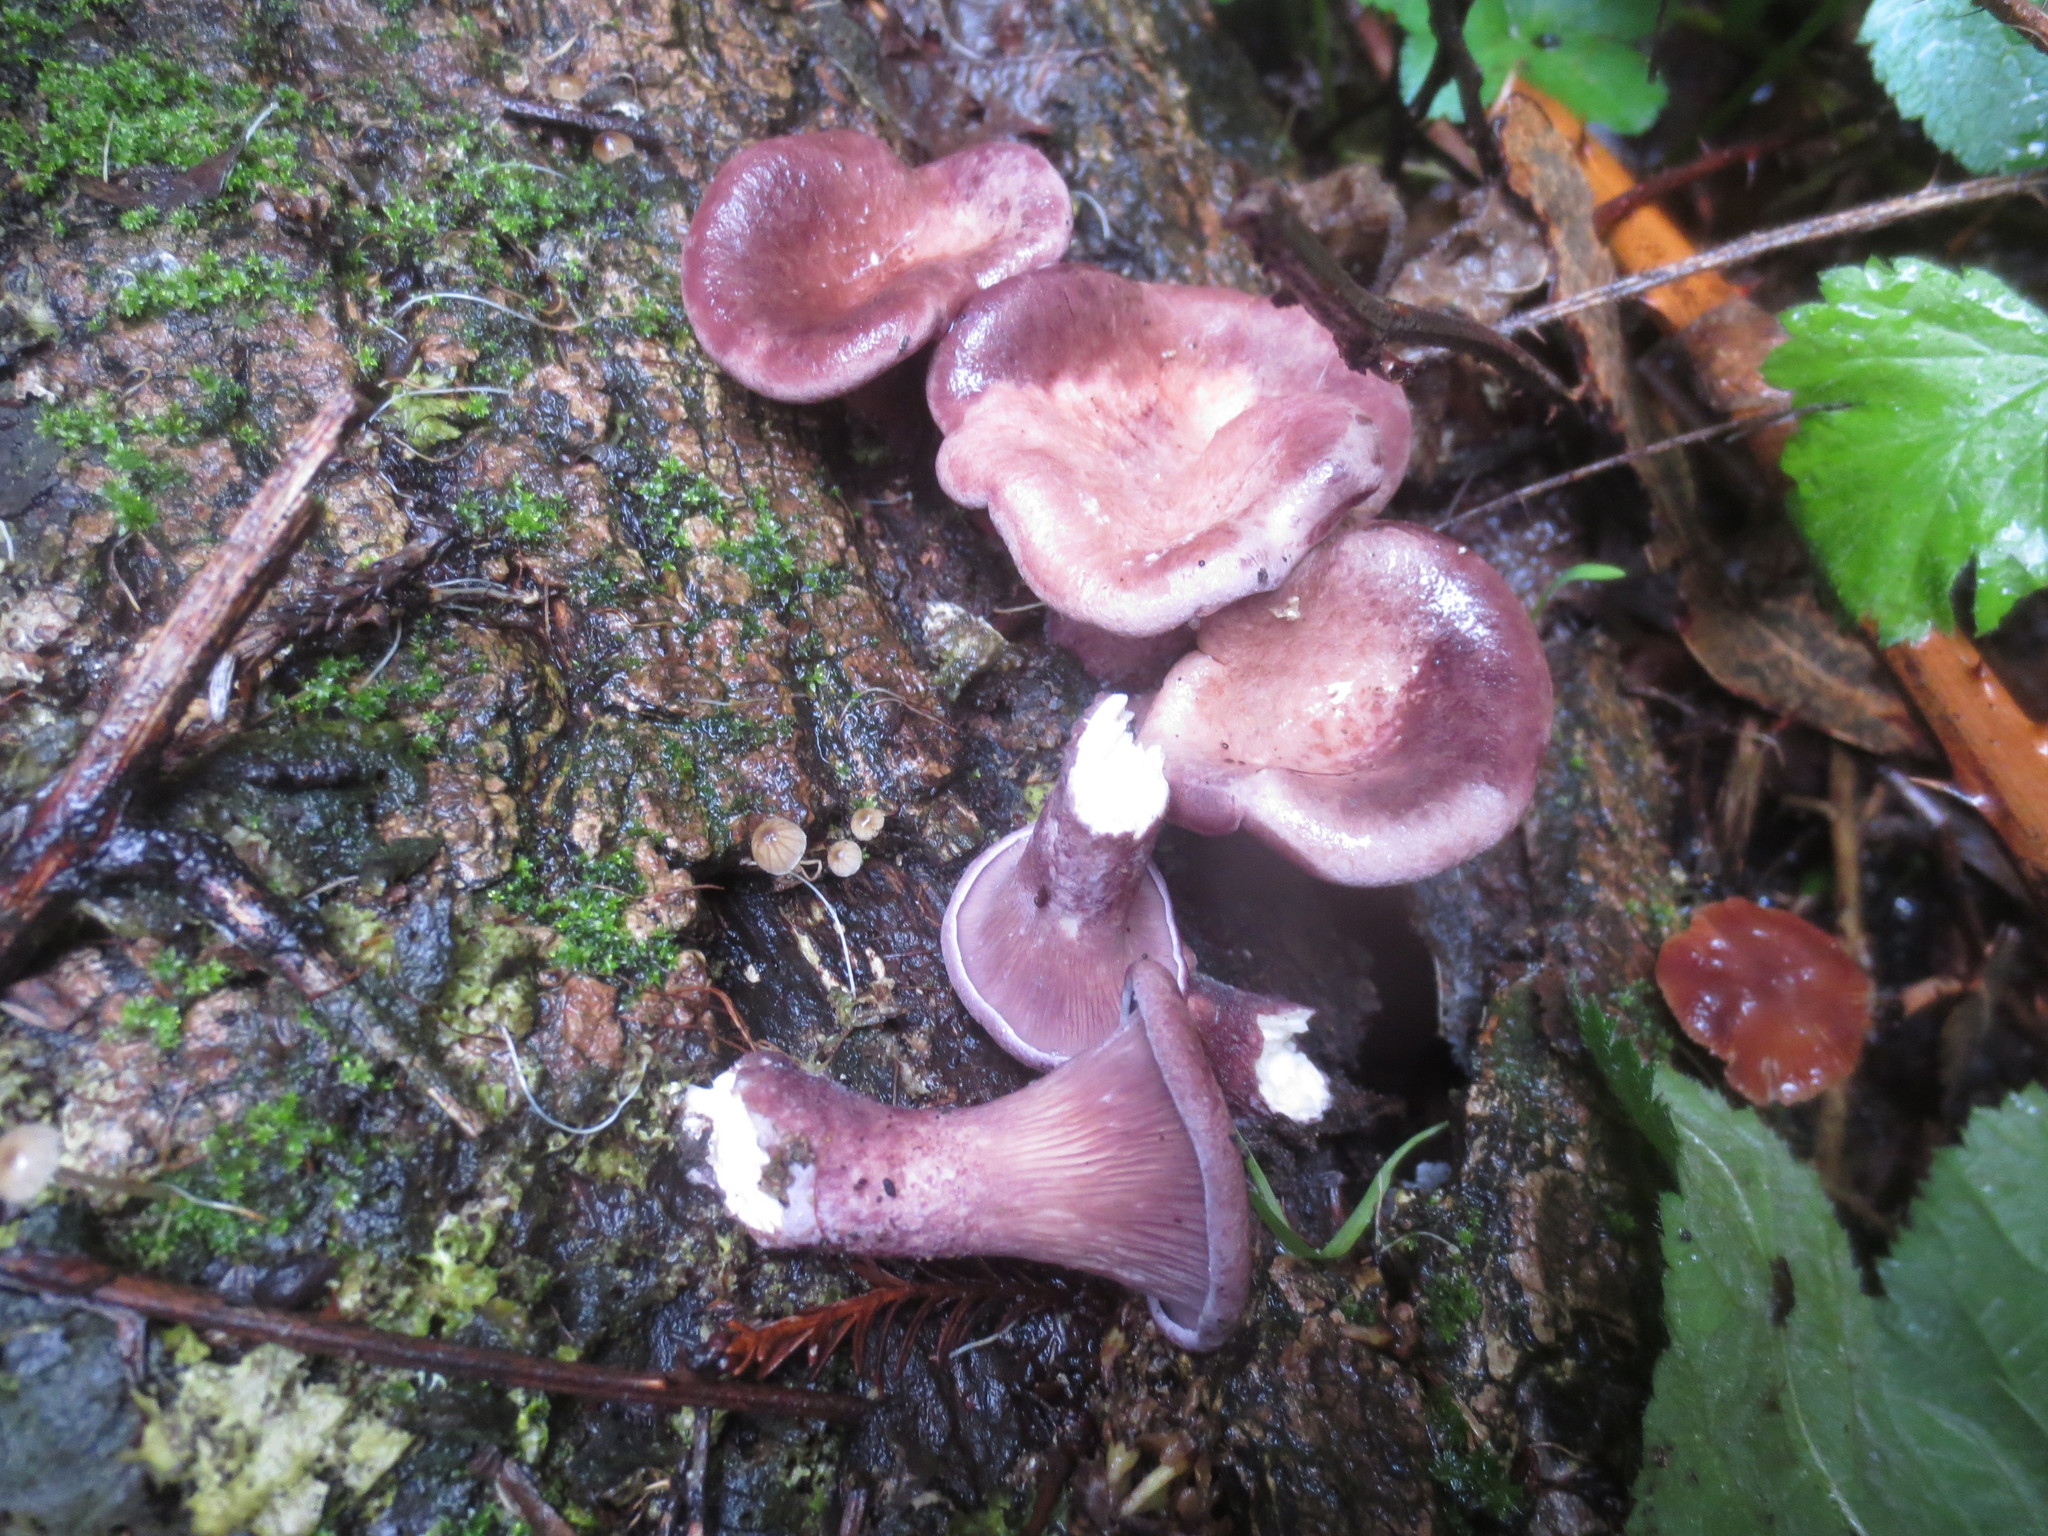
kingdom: Fungi
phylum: Basidiomycota
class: Agaricomycetes
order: Polyporales
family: Panaceae
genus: Panus
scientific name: Panus conchatus
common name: Lilac oysterling
